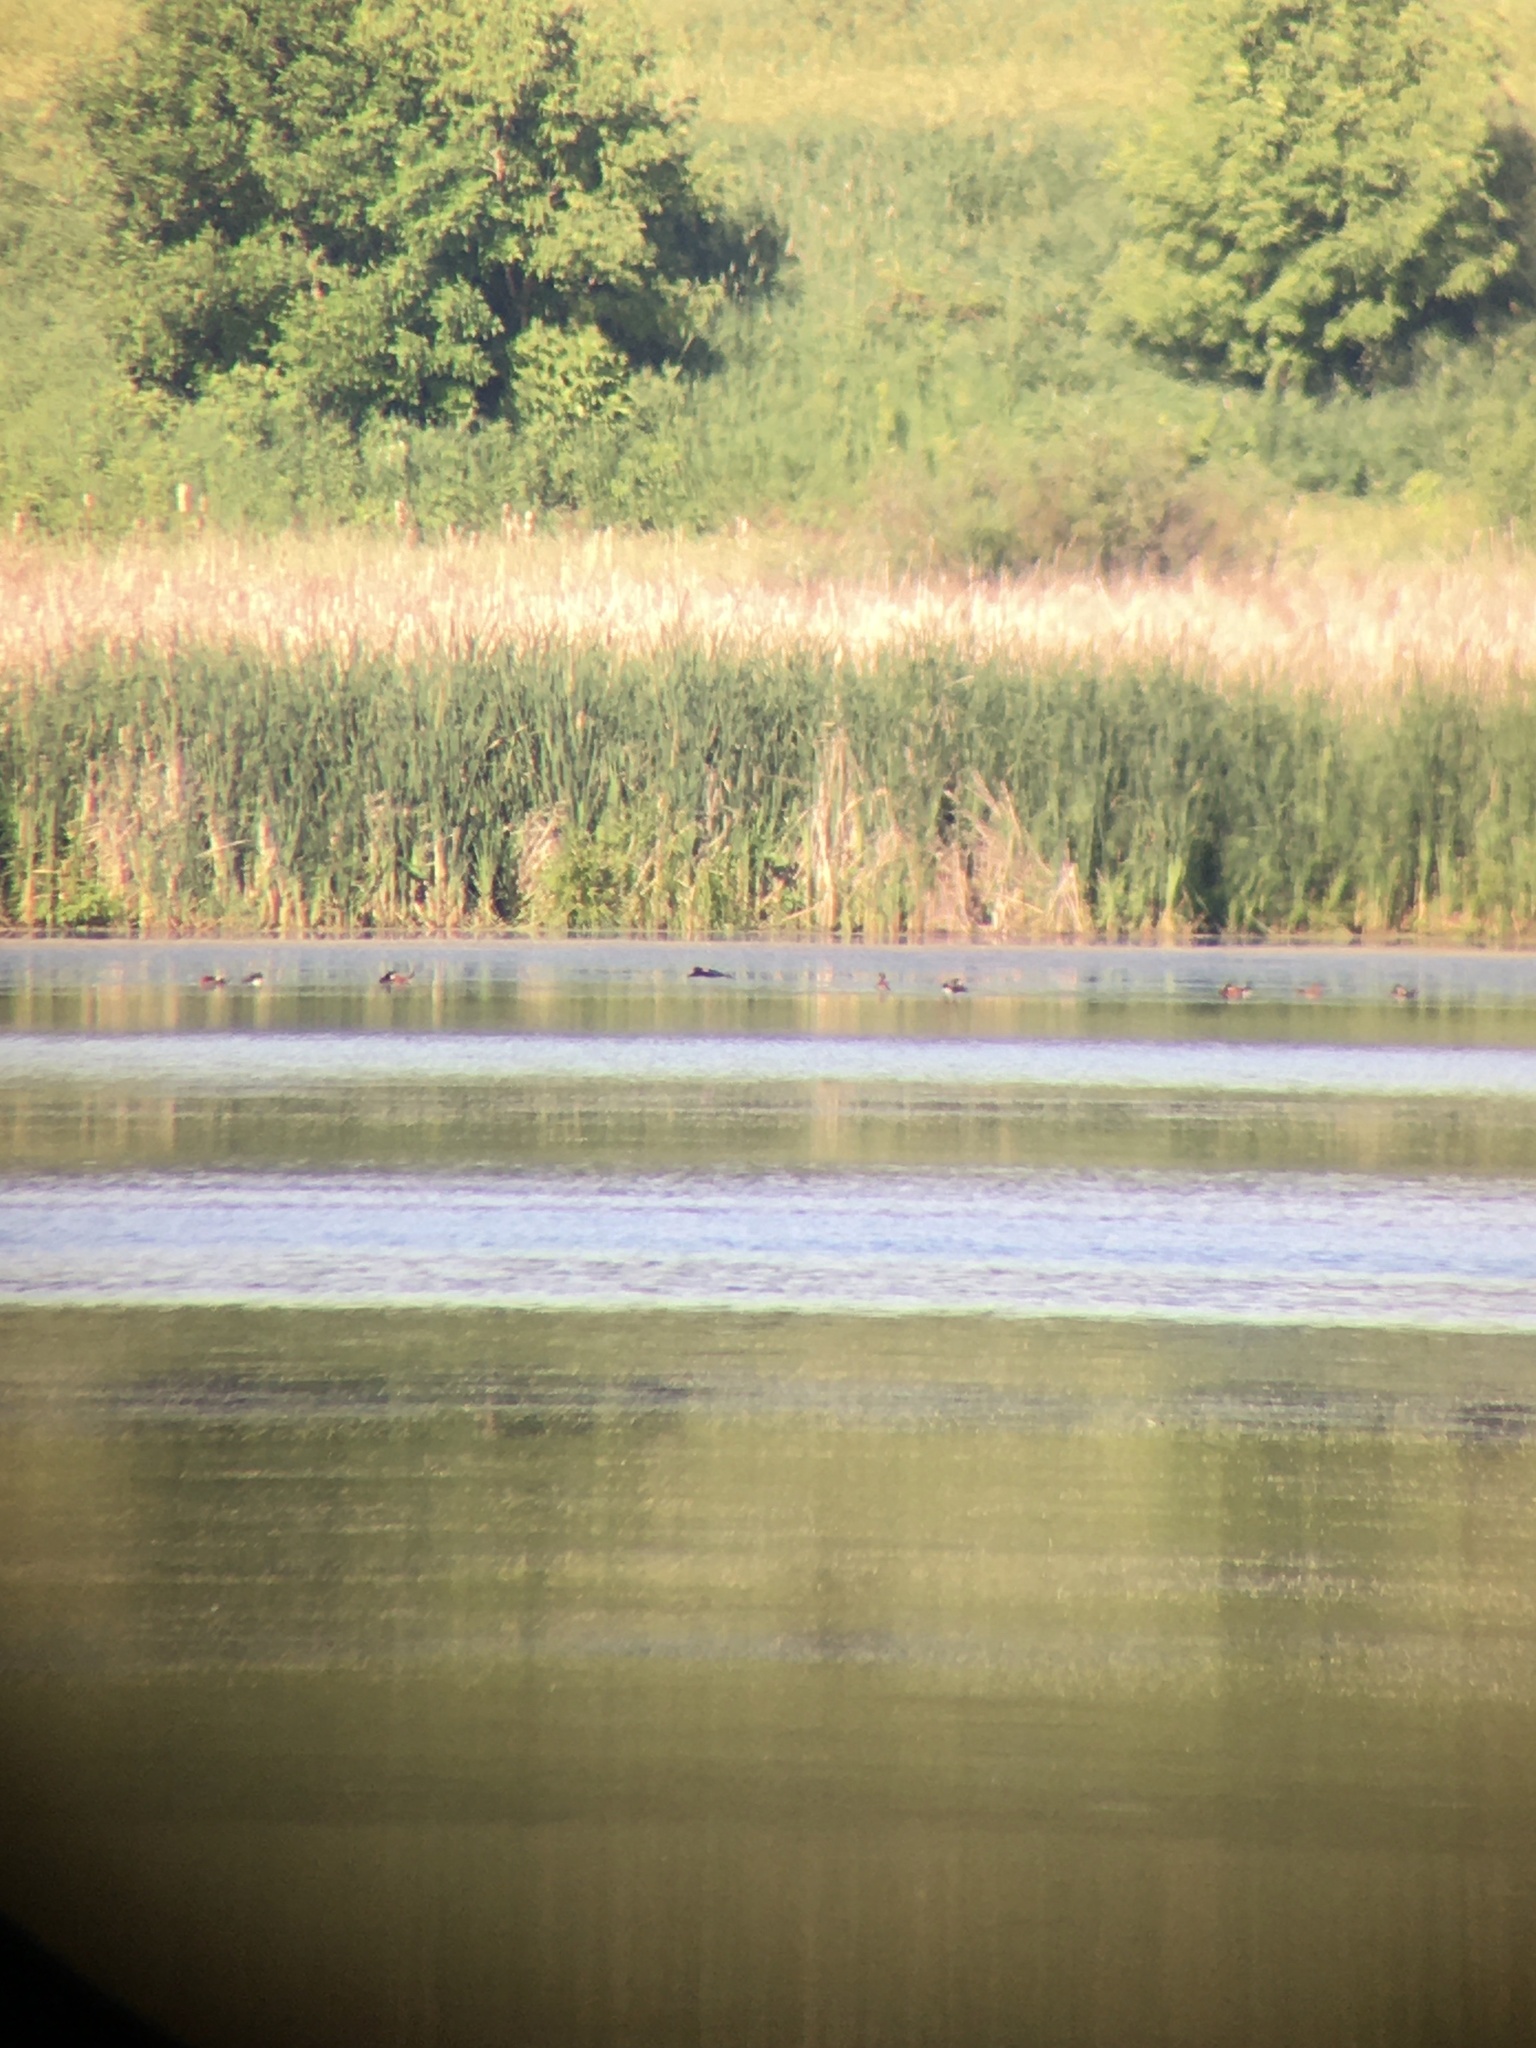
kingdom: Animalia
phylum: Chordata
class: Aves
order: Anseriformes
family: Anatidae
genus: Oxyura
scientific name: Oxyura jamaicensis
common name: Ruddy duck
